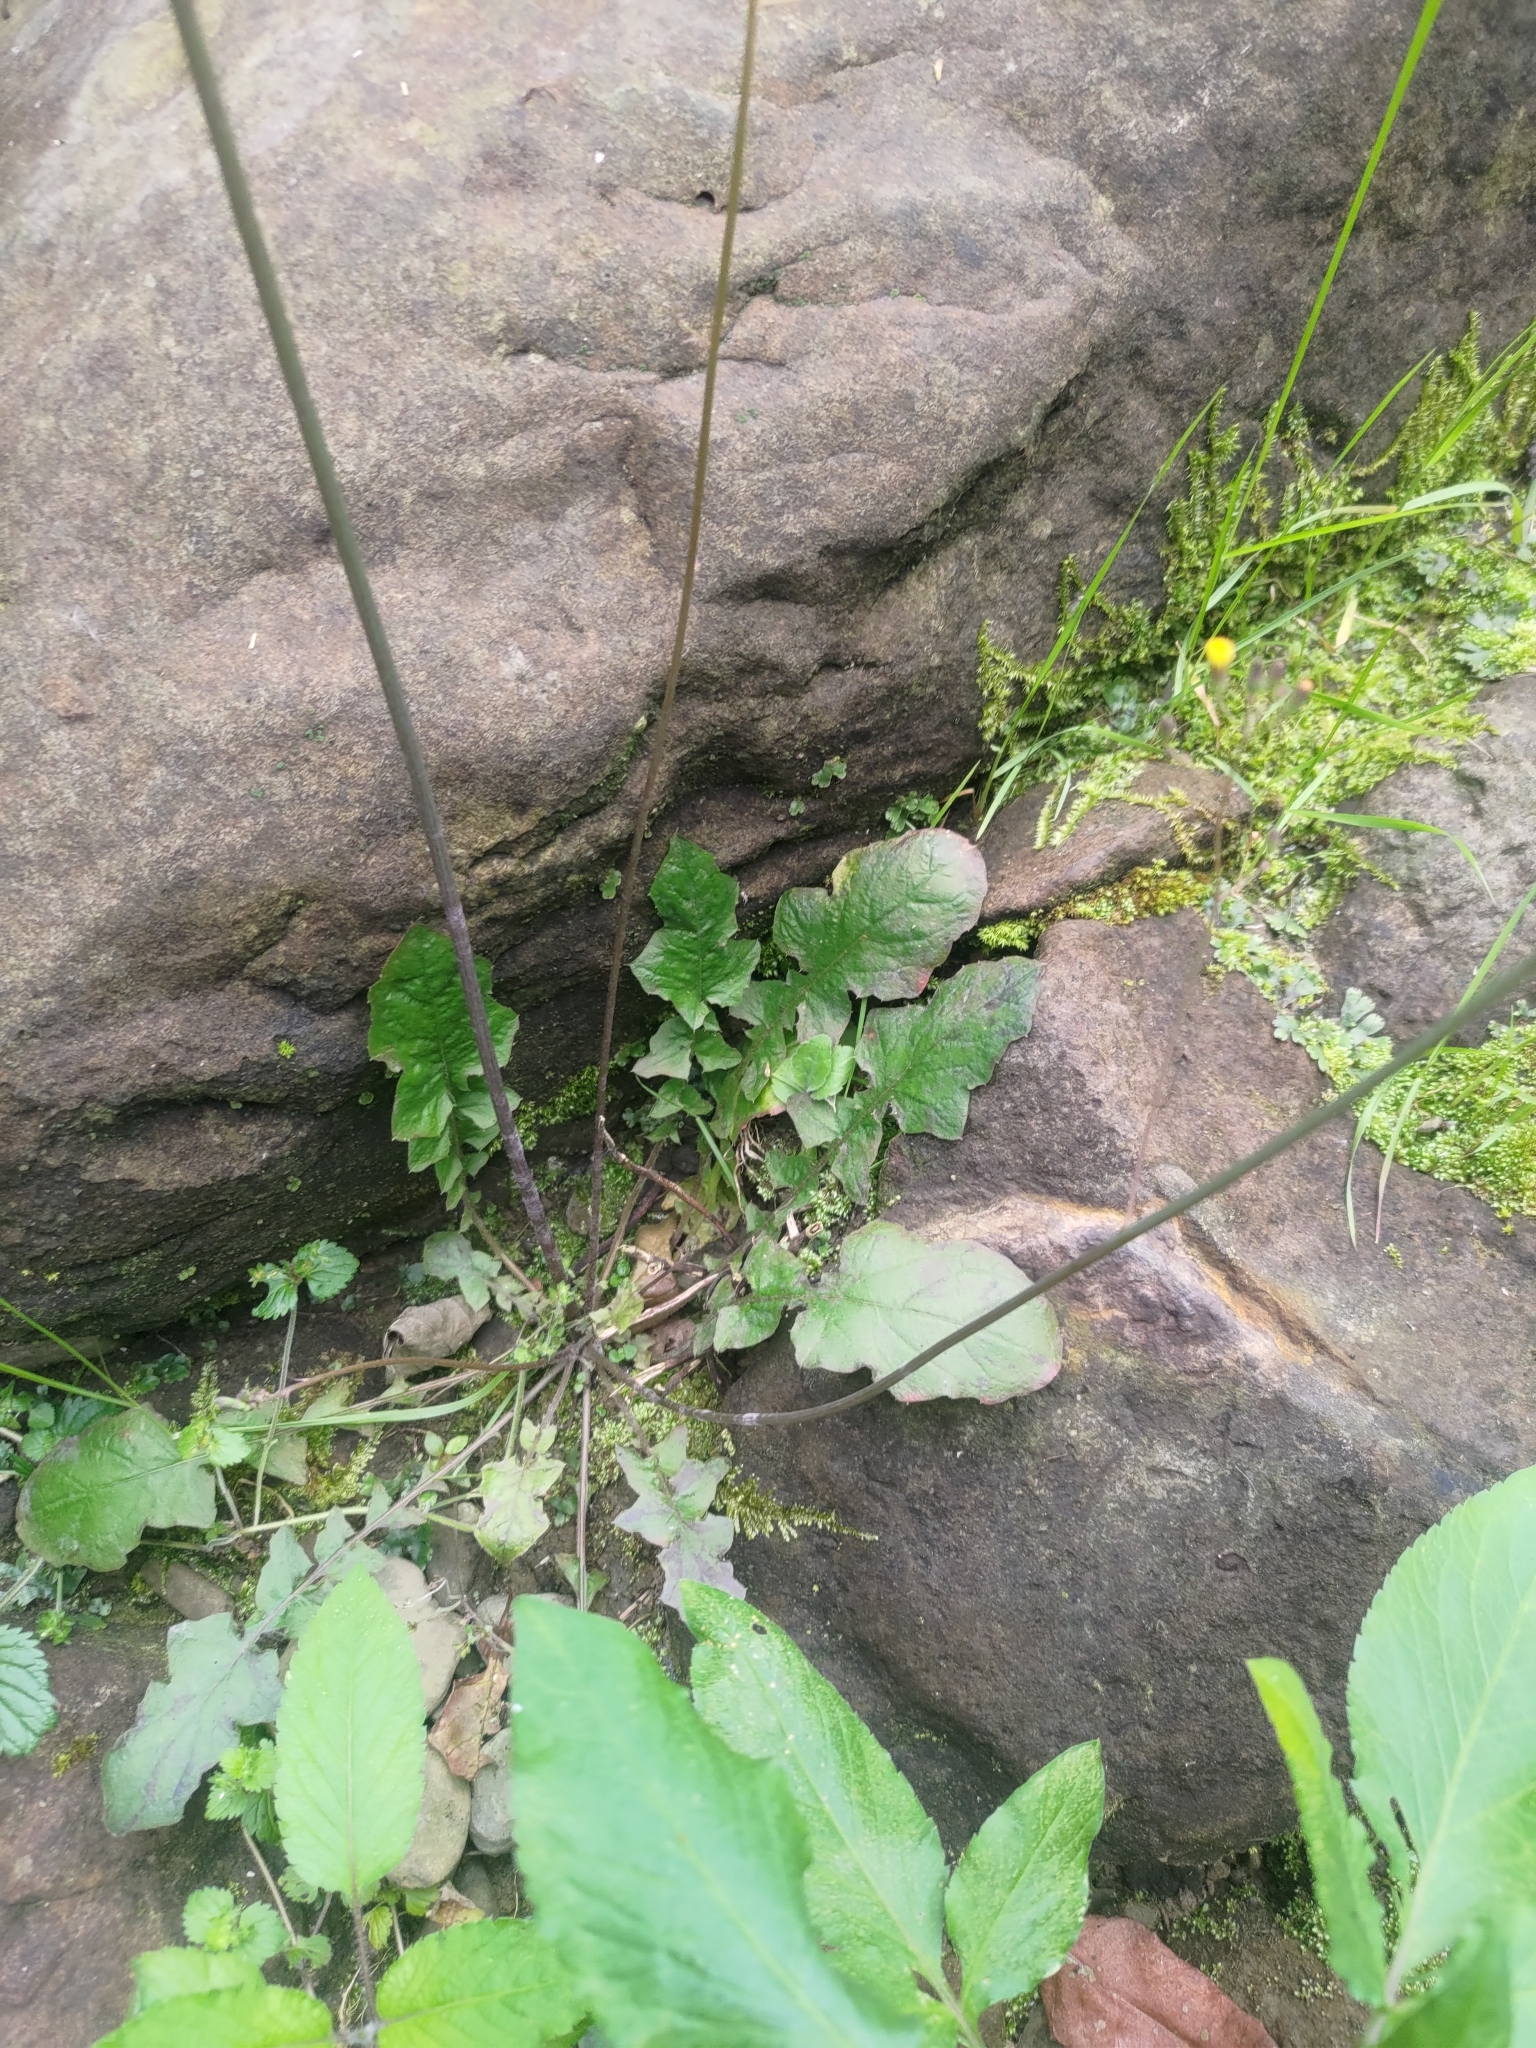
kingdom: Plantae
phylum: Tracheophyta
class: Magnoliopsida
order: Asterales
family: Asteraceae
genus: Youngia
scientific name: Youngia japonica
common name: Oriental false hawksbeard
